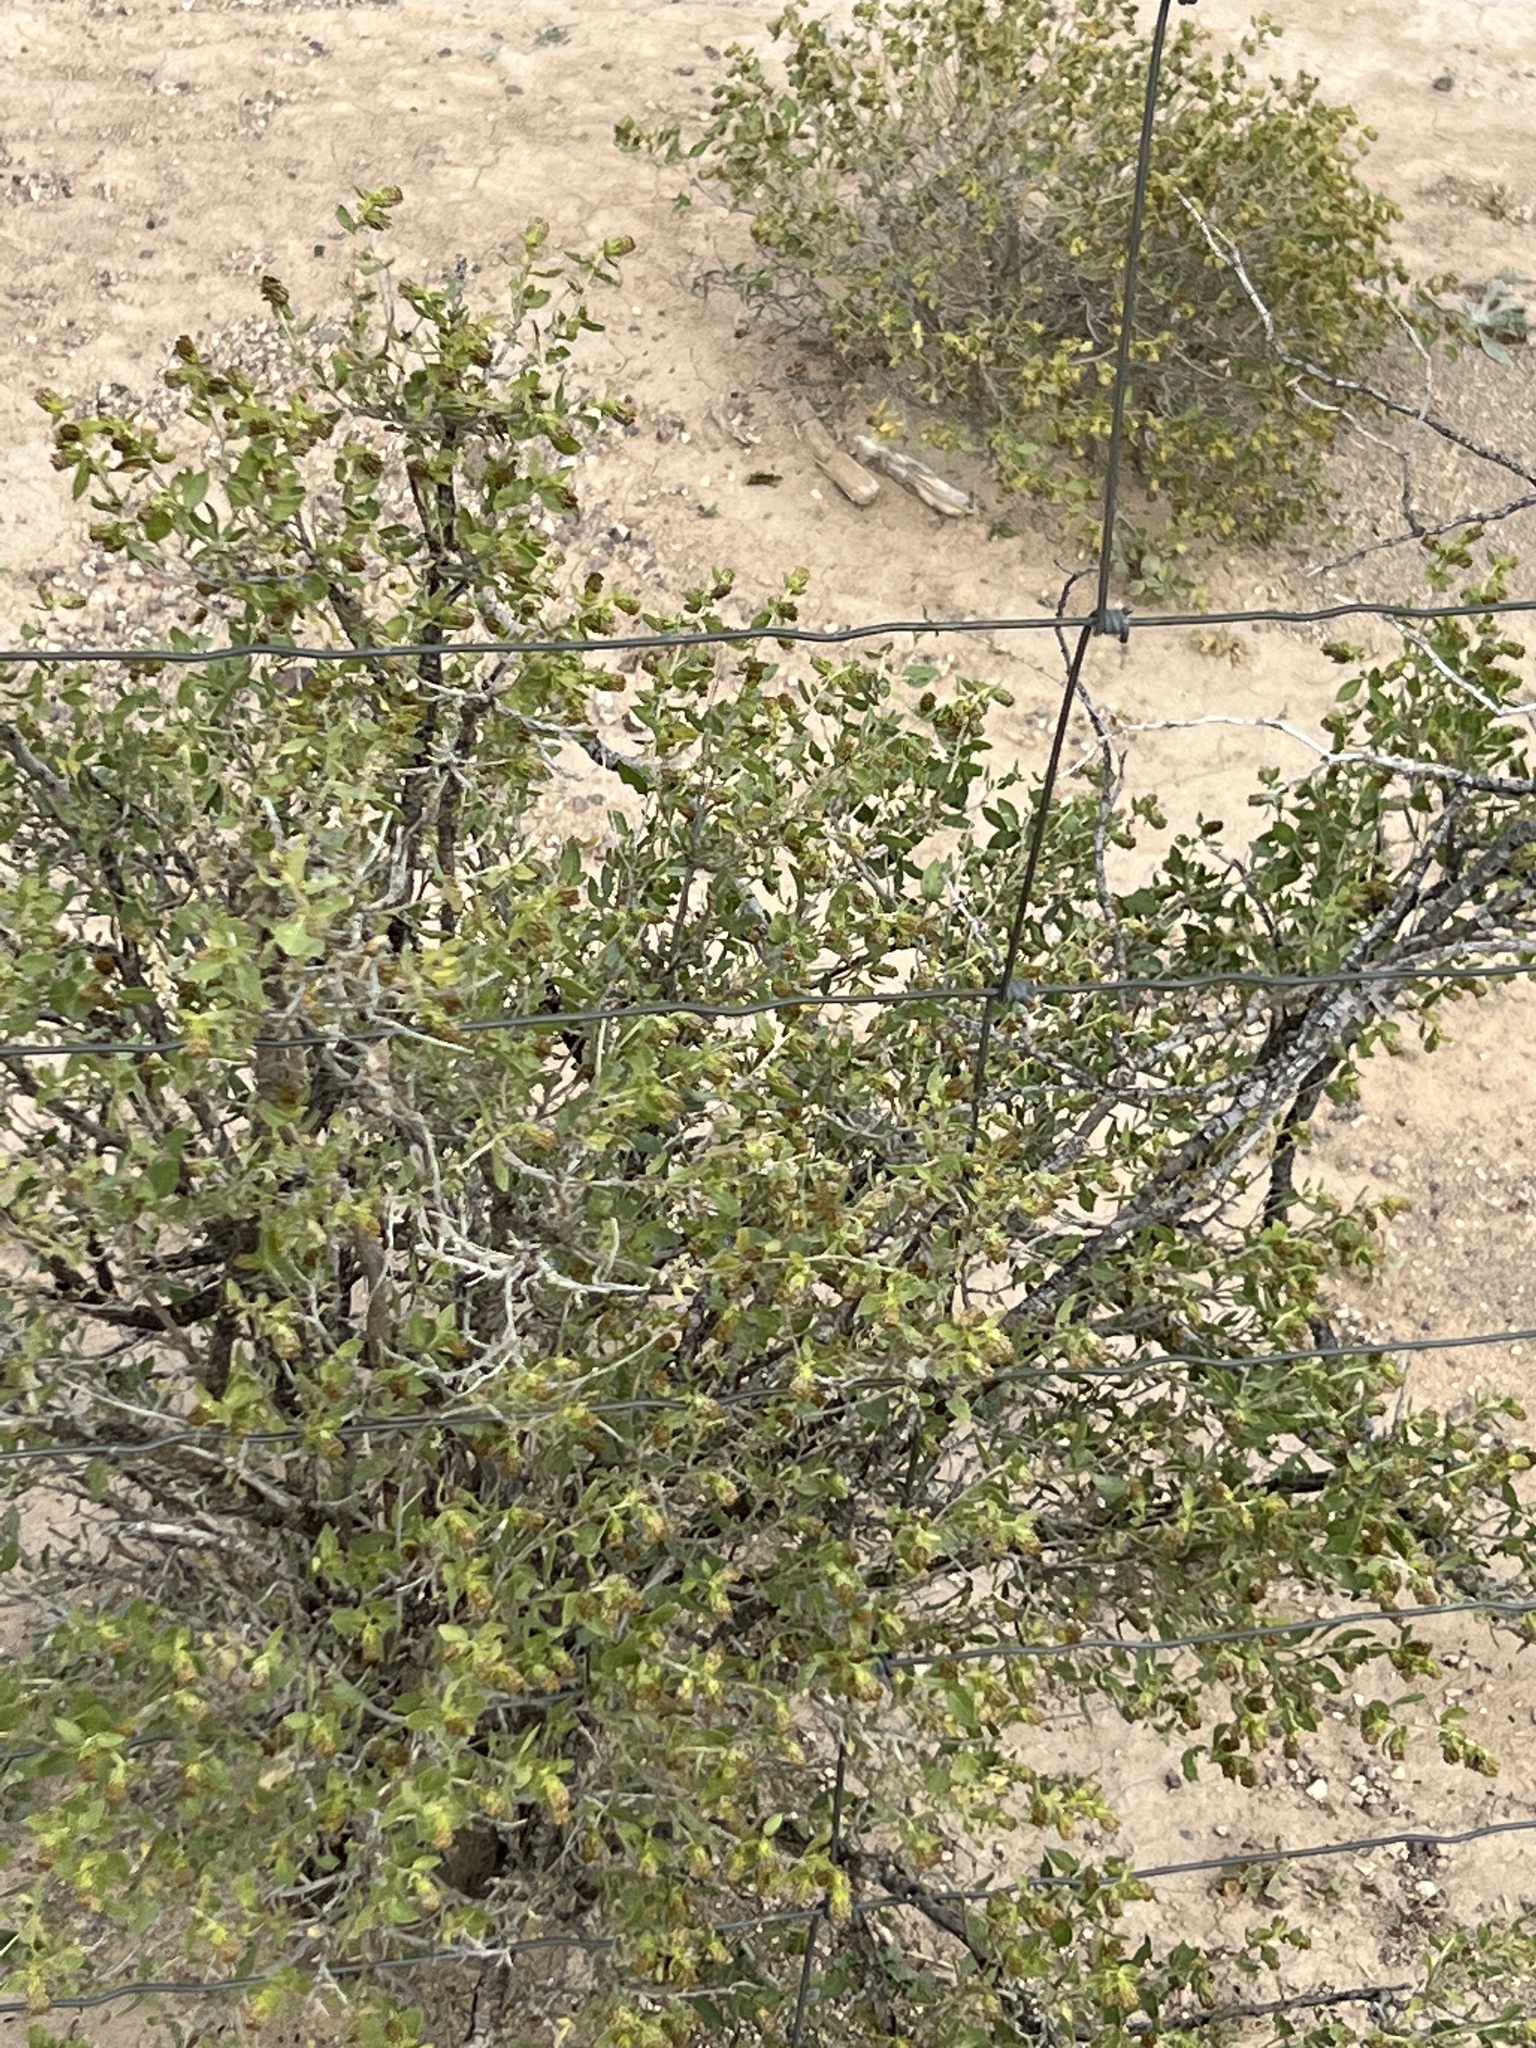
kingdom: Plantae
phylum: Tracheophyta
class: Magnoliopsida
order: Asterales
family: Asteraceae
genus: Flourensia
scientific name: Flourensia cernua
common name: Varnishbush
